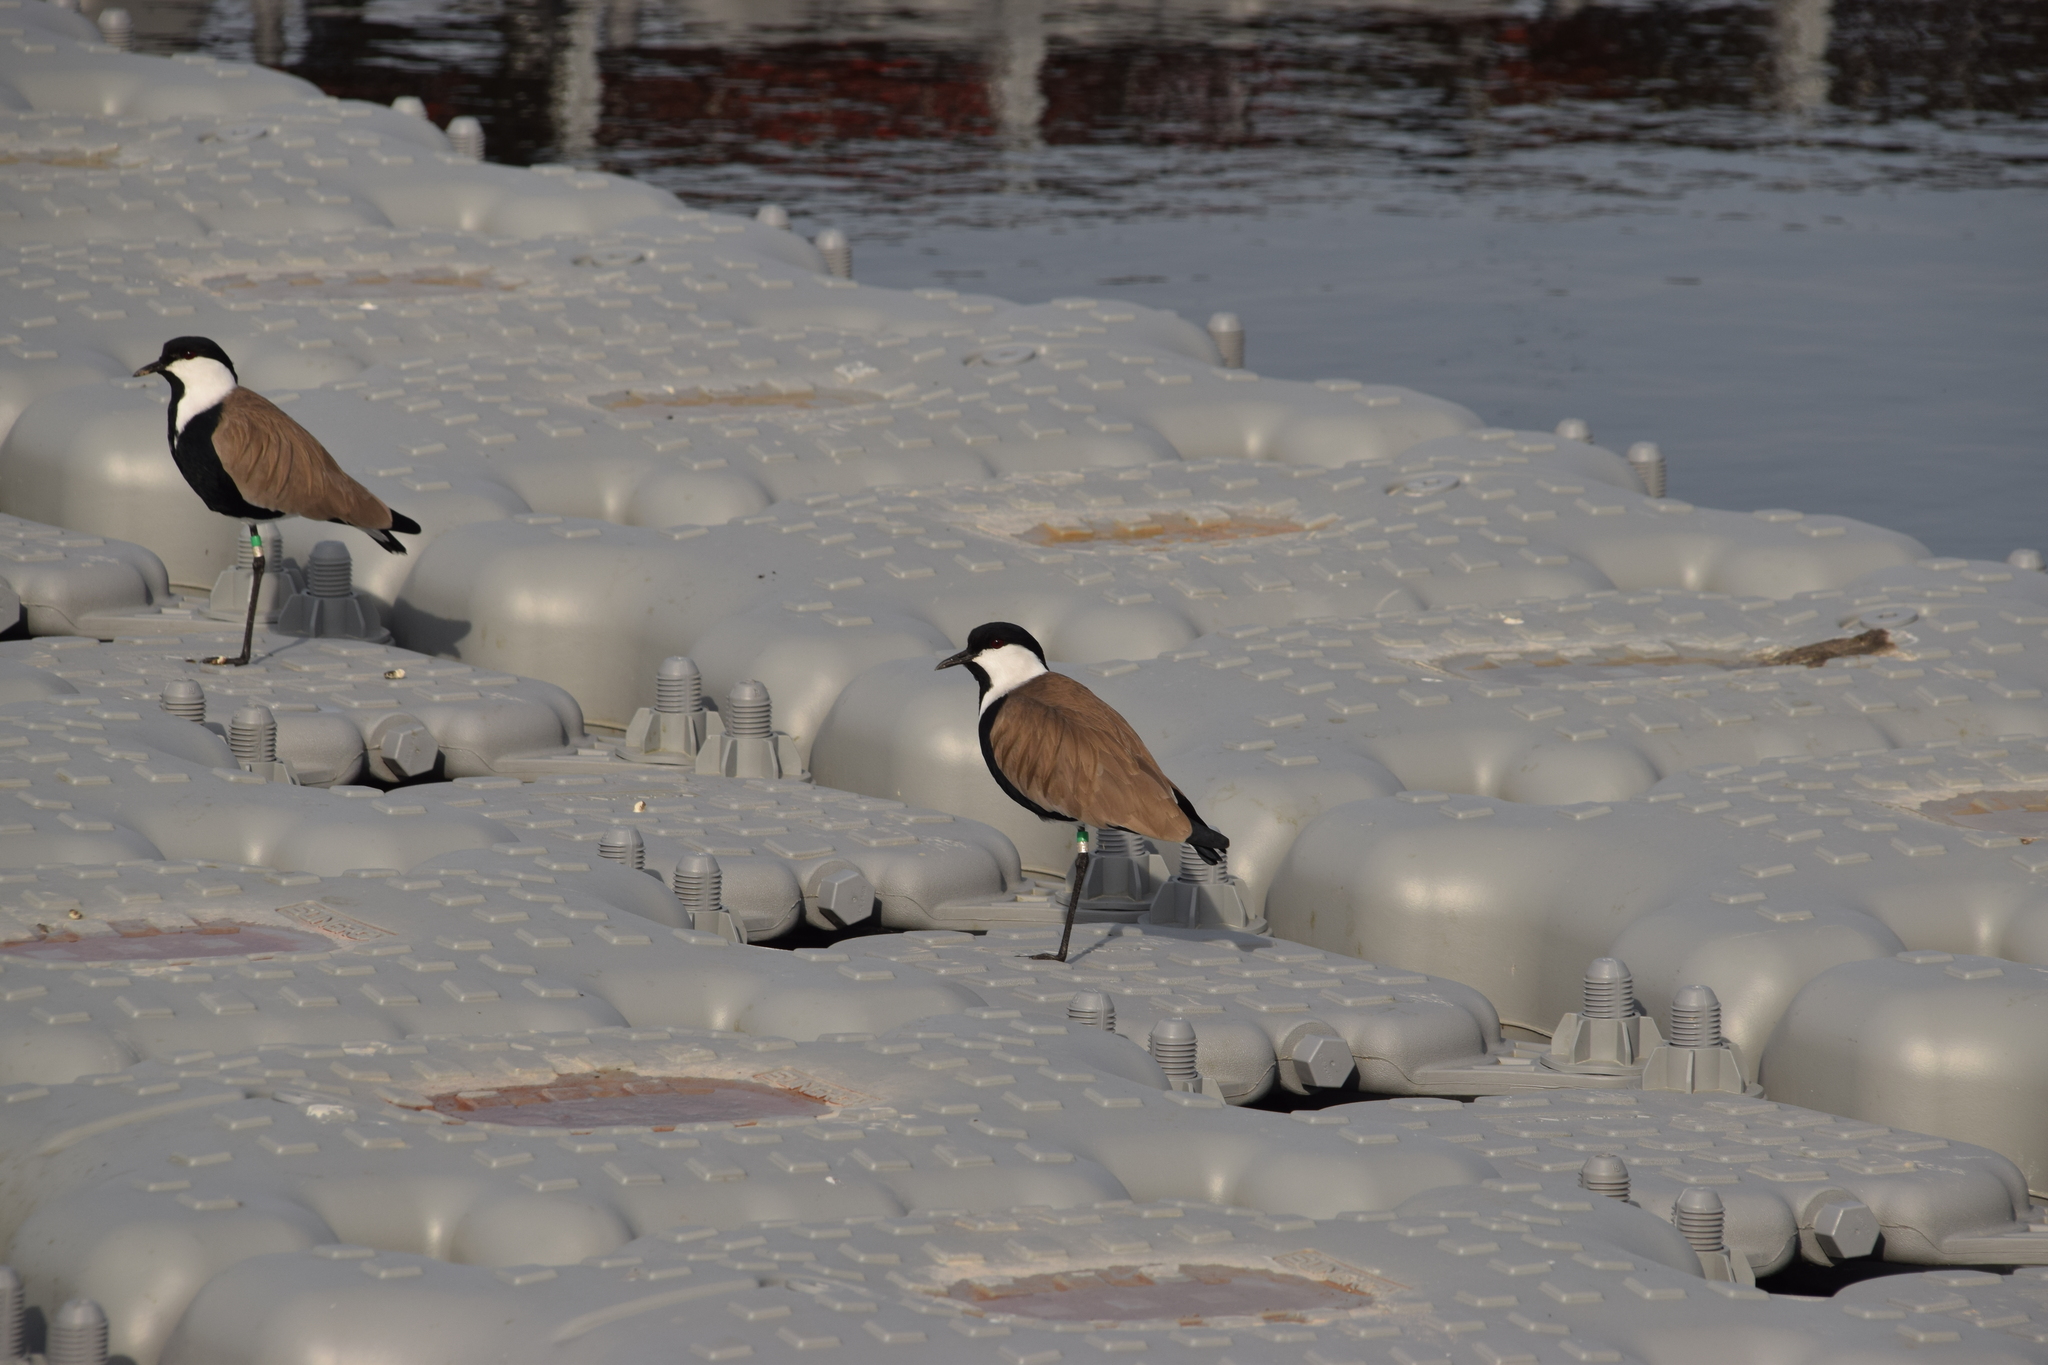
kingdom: Animalia
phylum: Chordata
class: Aves
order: Charadriiformes
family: Charadriidae
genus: Vanellus
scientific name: Vanellus spinosus
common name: Spur-winged lapwing
